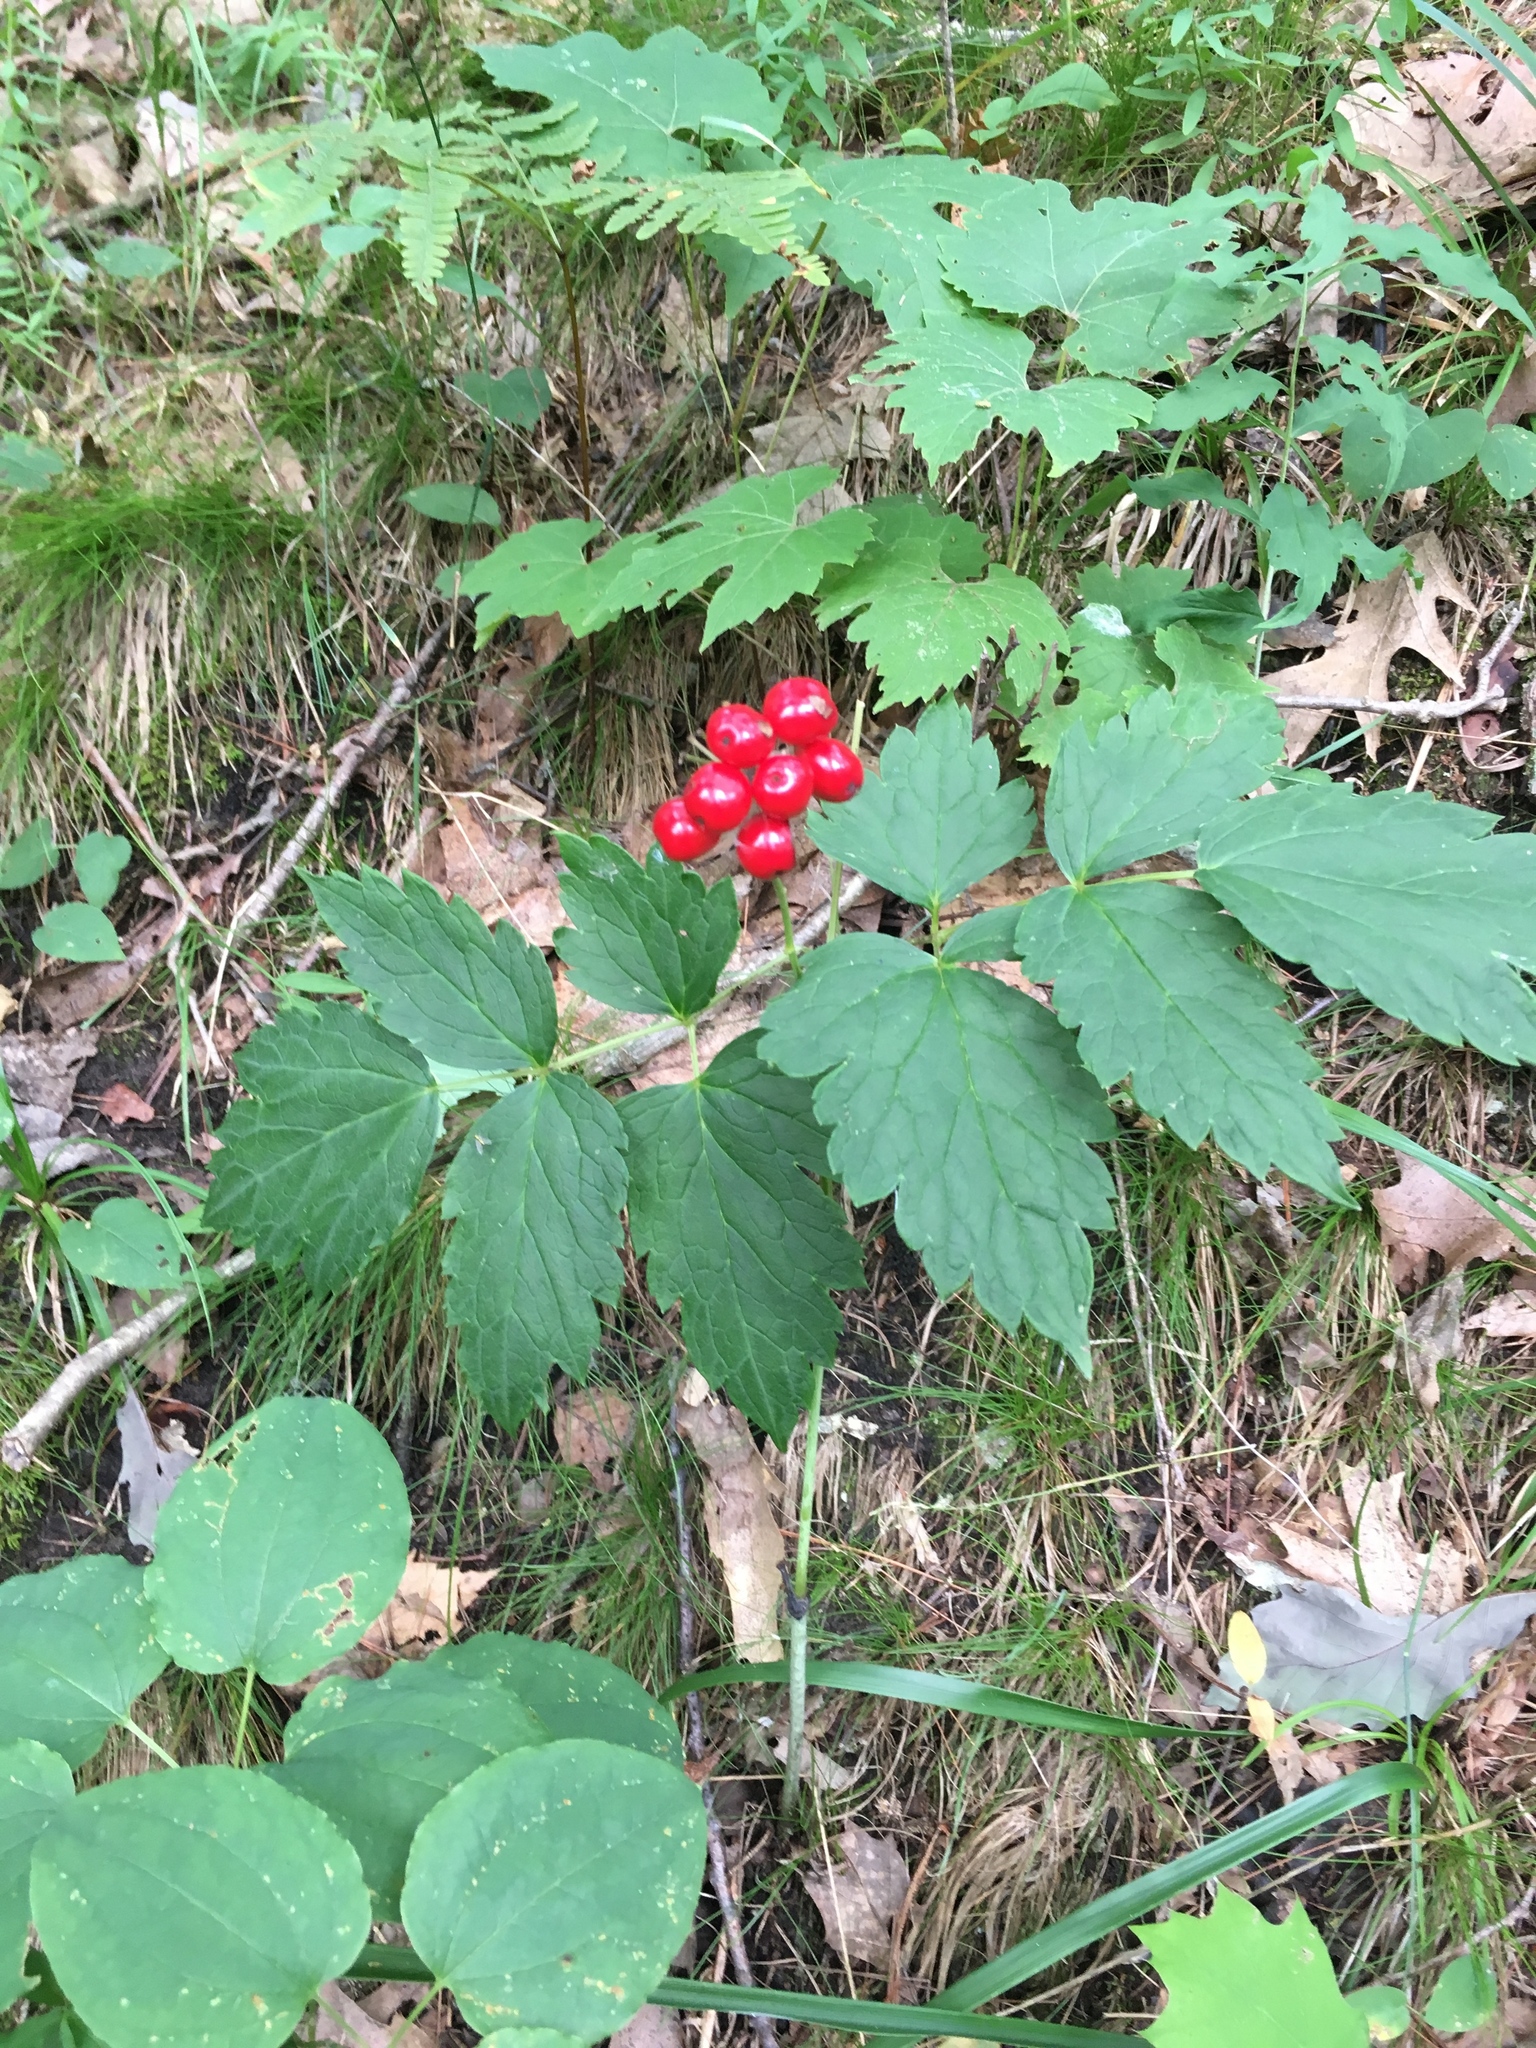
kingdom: Plantae
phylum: Tracheophyta
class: Magnoliopsida
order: Ranunculales
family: Ranunculaceae
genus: Actaea
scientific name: Actaea rubra
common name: Red baneberry
